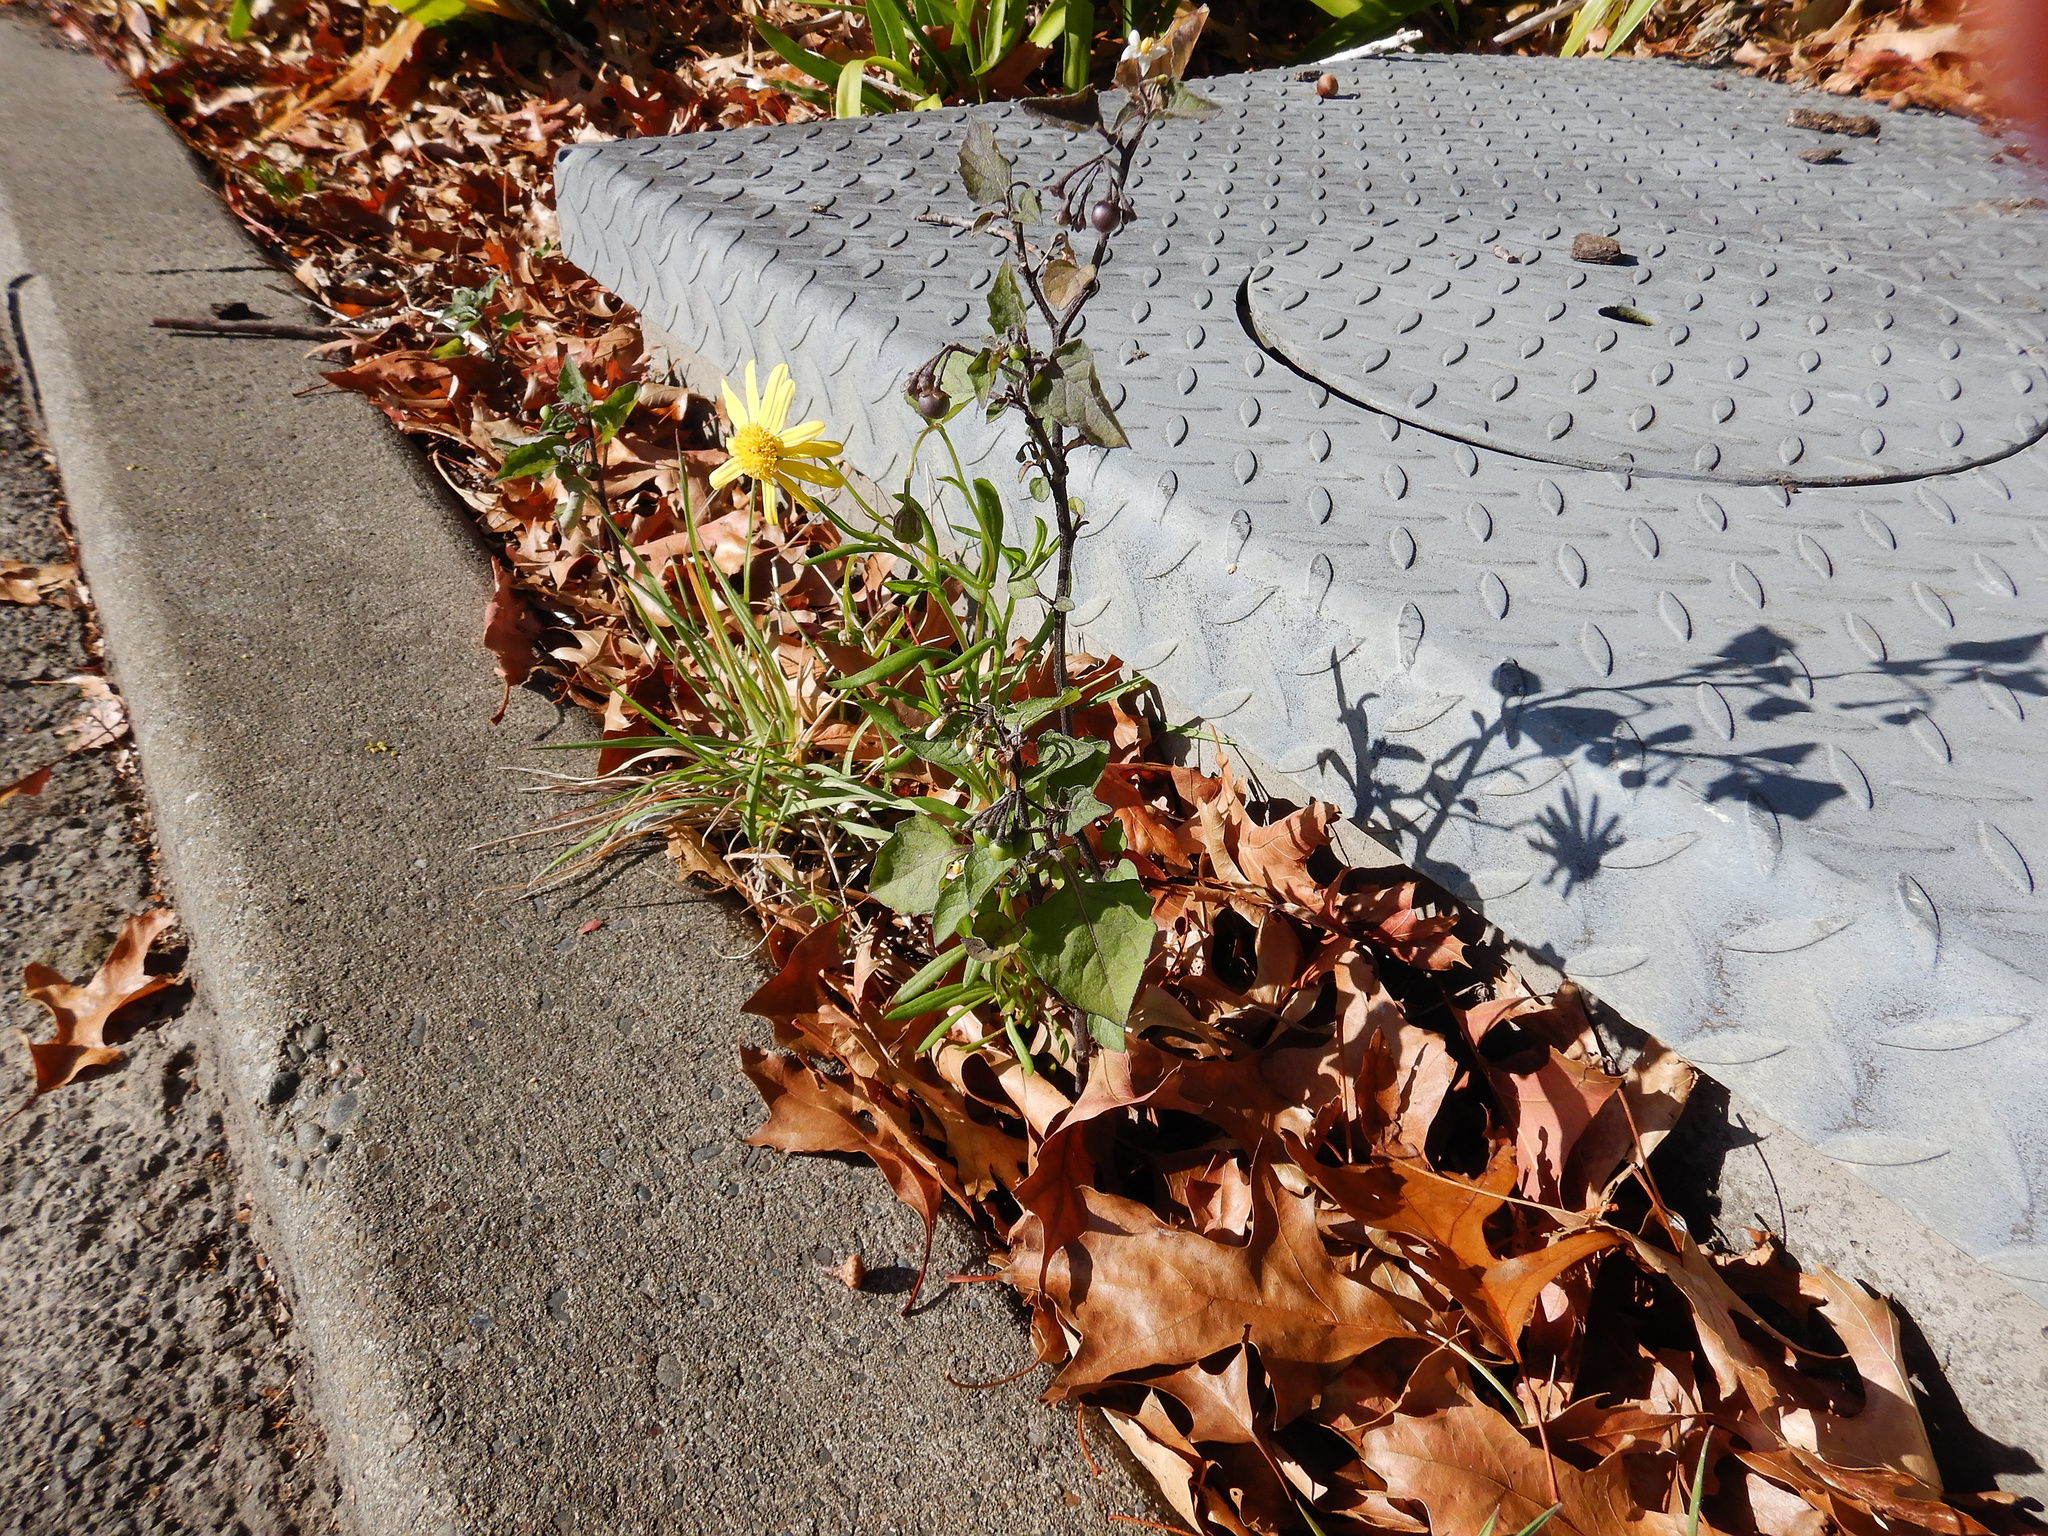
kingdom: Plantae
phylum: Tracheophyta
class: Magnoliopsida
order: Asterales
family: Asteraceae
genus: Senecio
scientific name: Senecio skirrhodon
